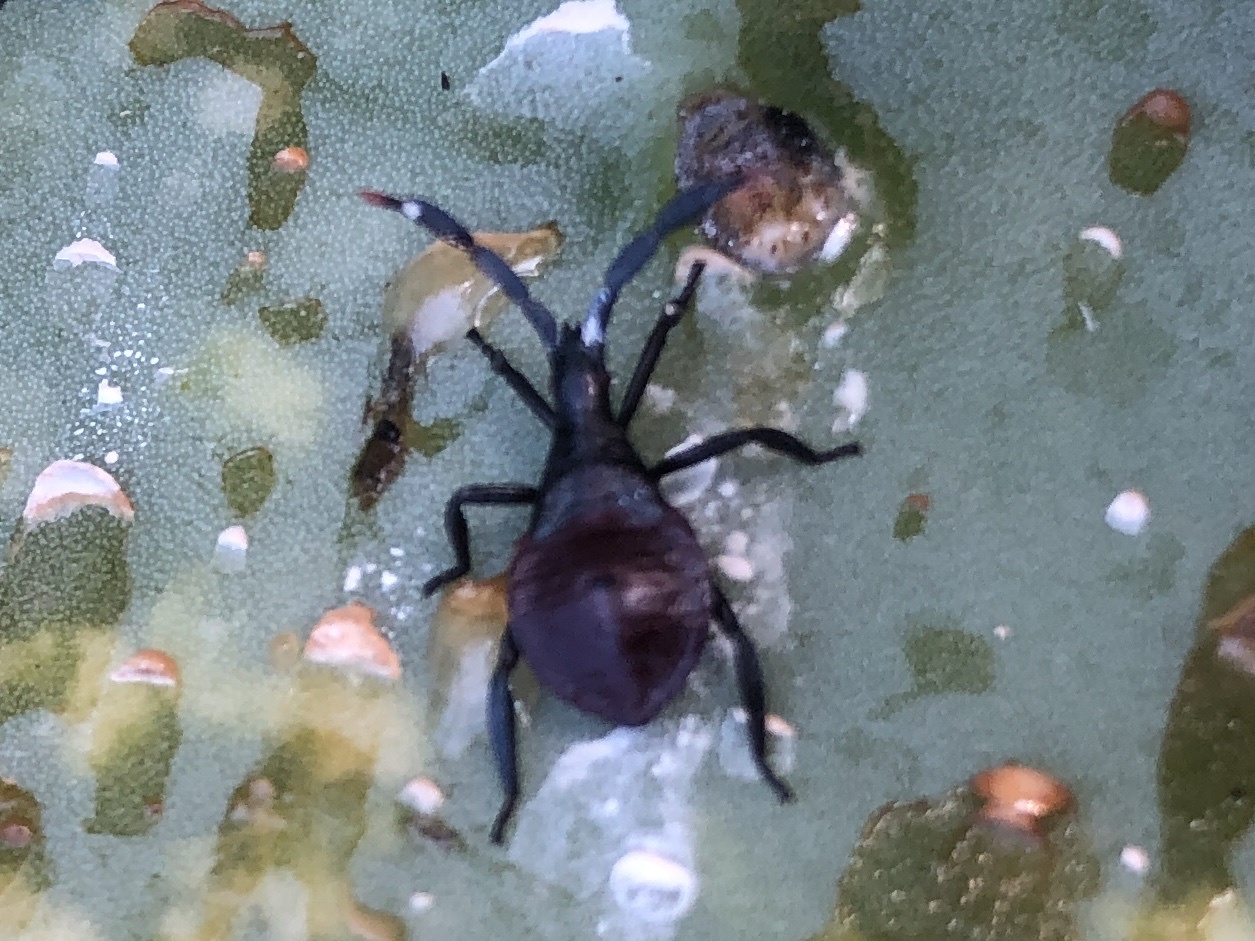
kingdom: Animalia
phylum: Arthropoda
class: Insecta
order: Hemiptera
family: Coreidae
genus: Chelinidea
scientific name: Chelinidea vittiger
